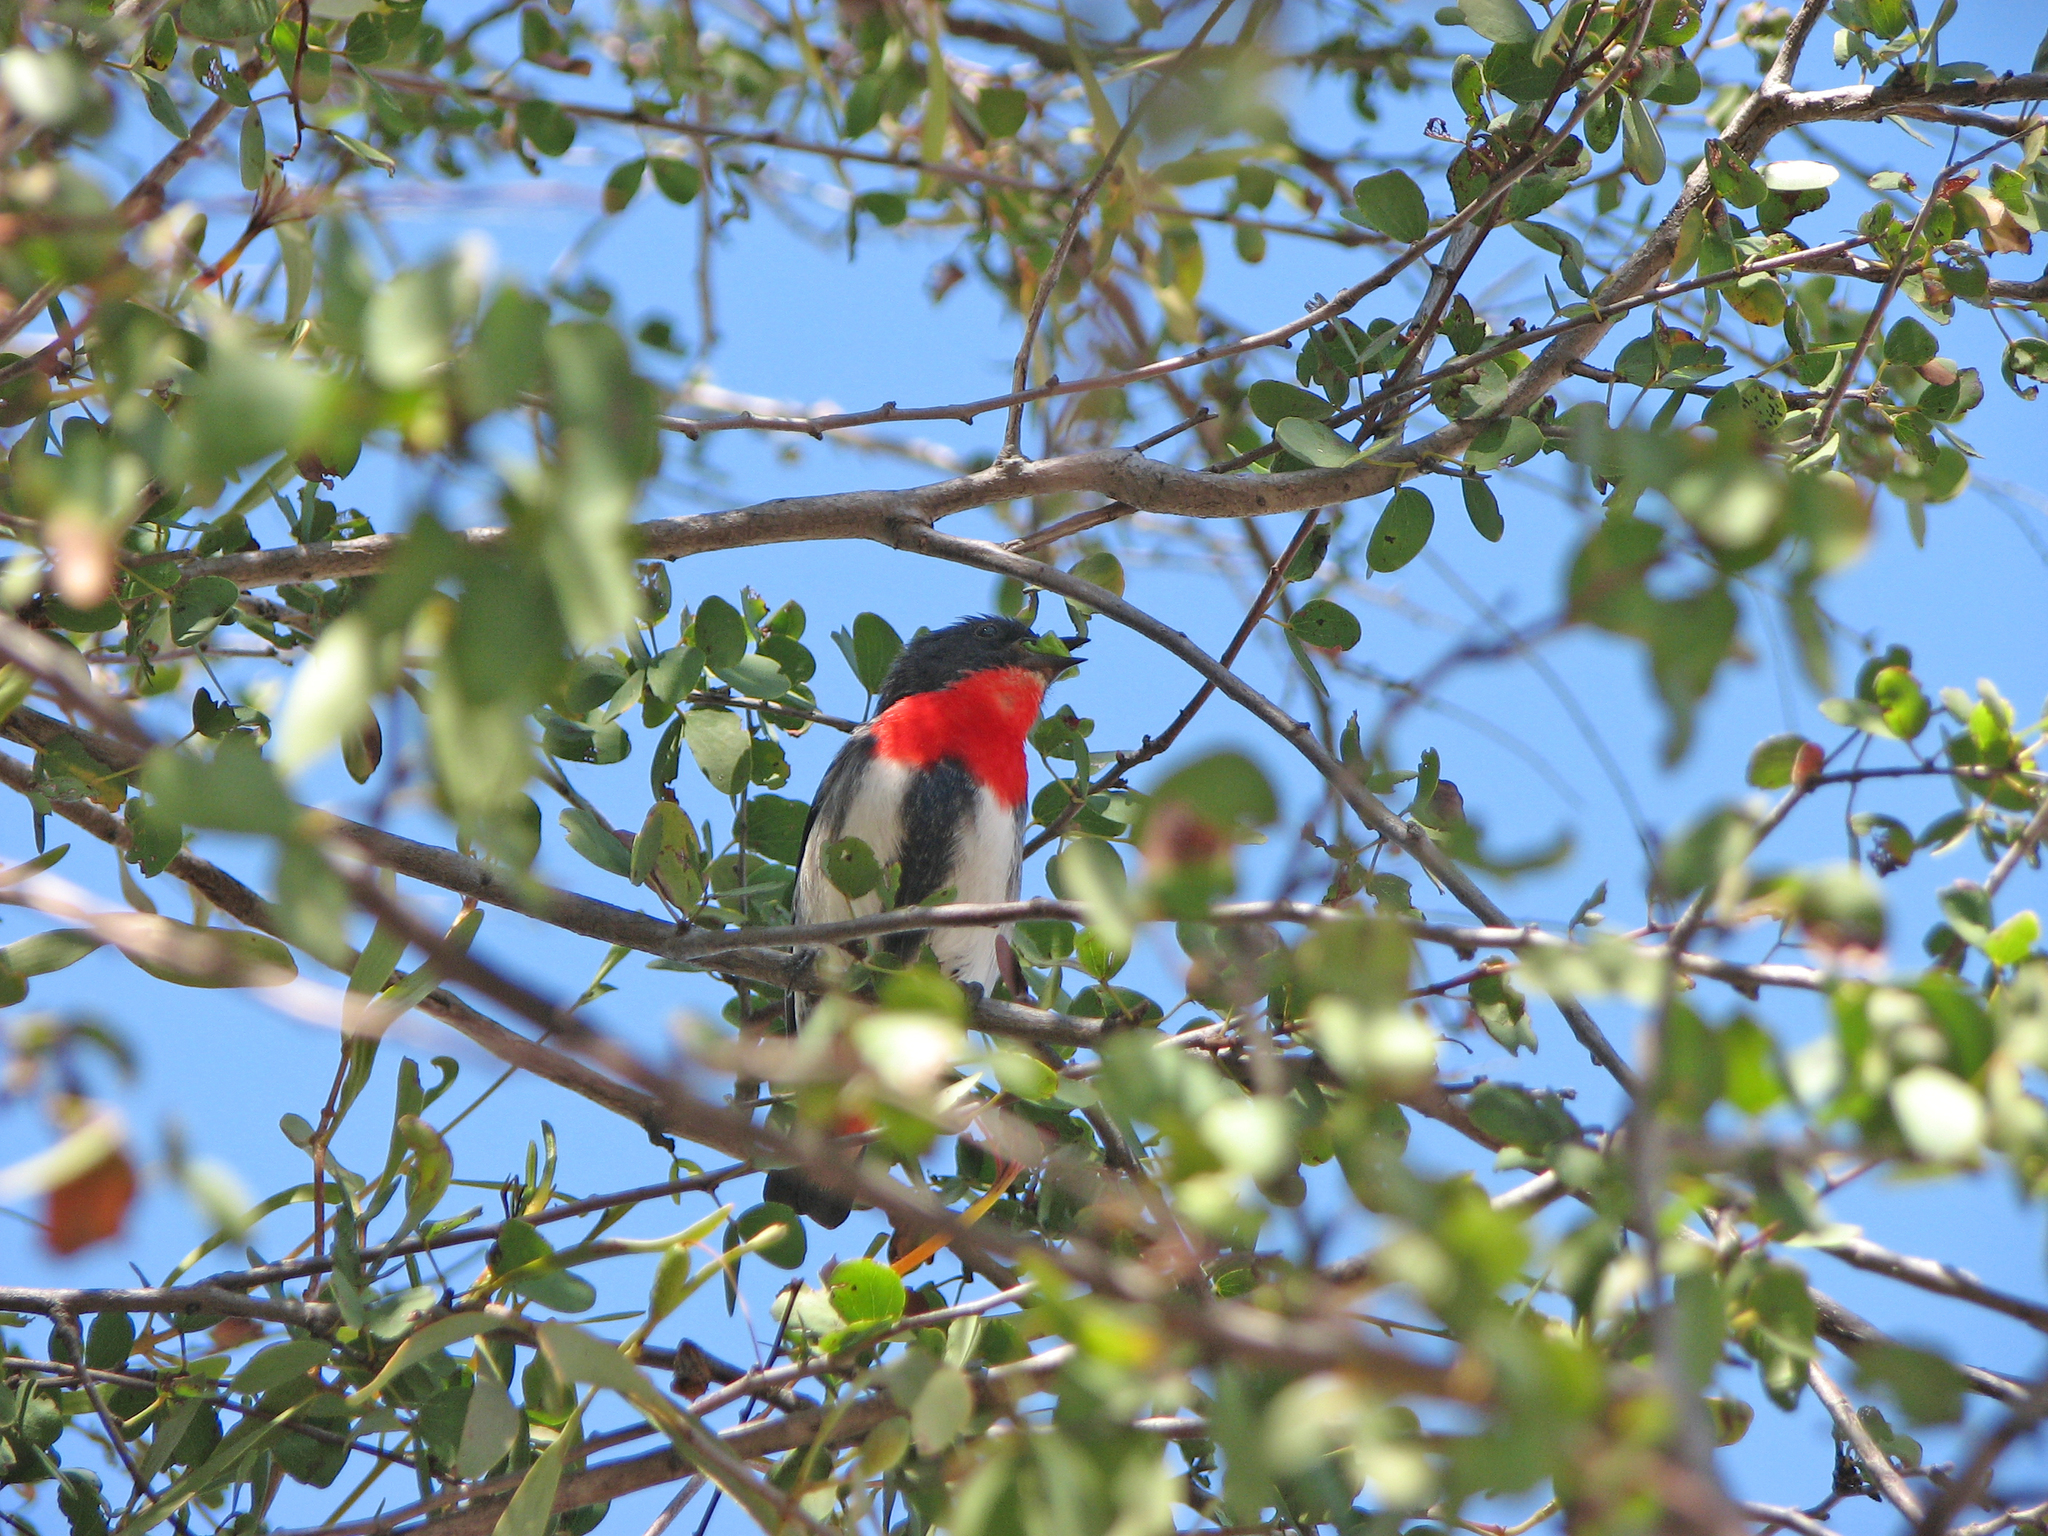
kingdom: Animalia
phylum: Chordata
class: Aves
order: Passeriformes
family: Dicaeidae
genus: Dicaeum
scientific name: Dicaeum hirundinaceum
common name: Mistletoebird
